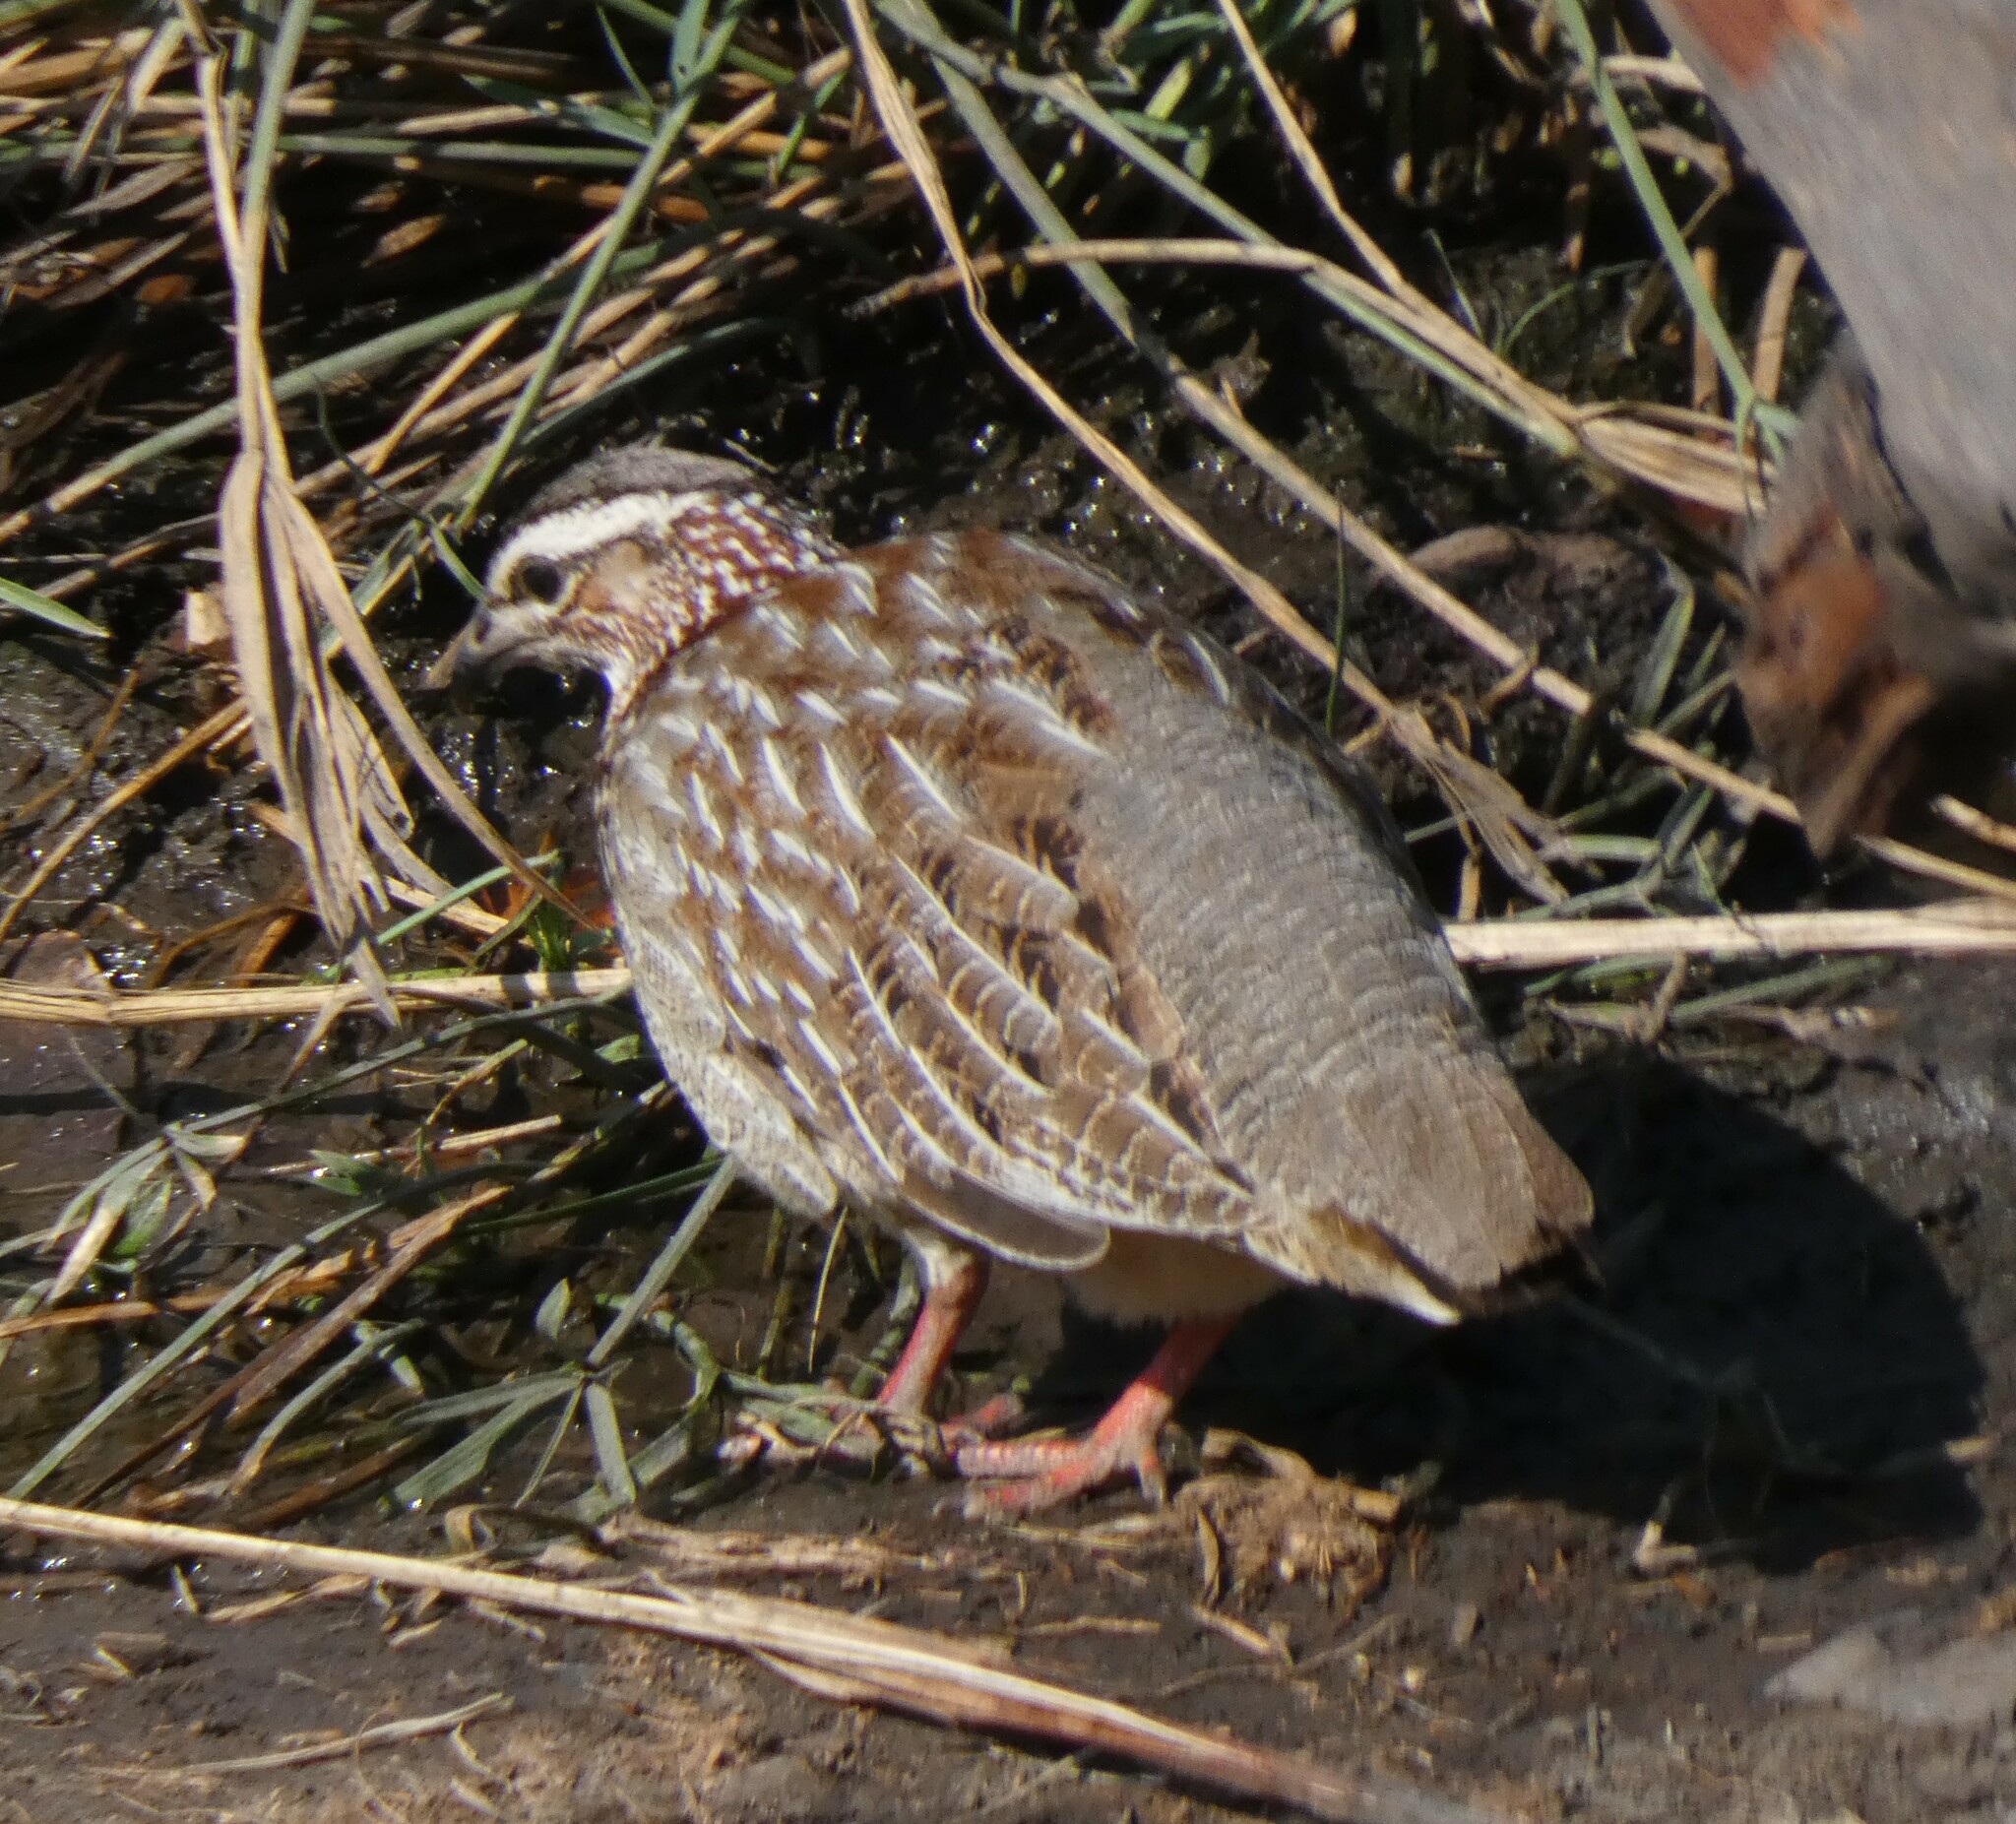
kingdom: Animalia
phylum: Chordata
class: Aves
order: Galliformes
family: Phasianidae
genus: Ortygornis
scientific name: Ortygornis sephaena
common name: Crested francolin
